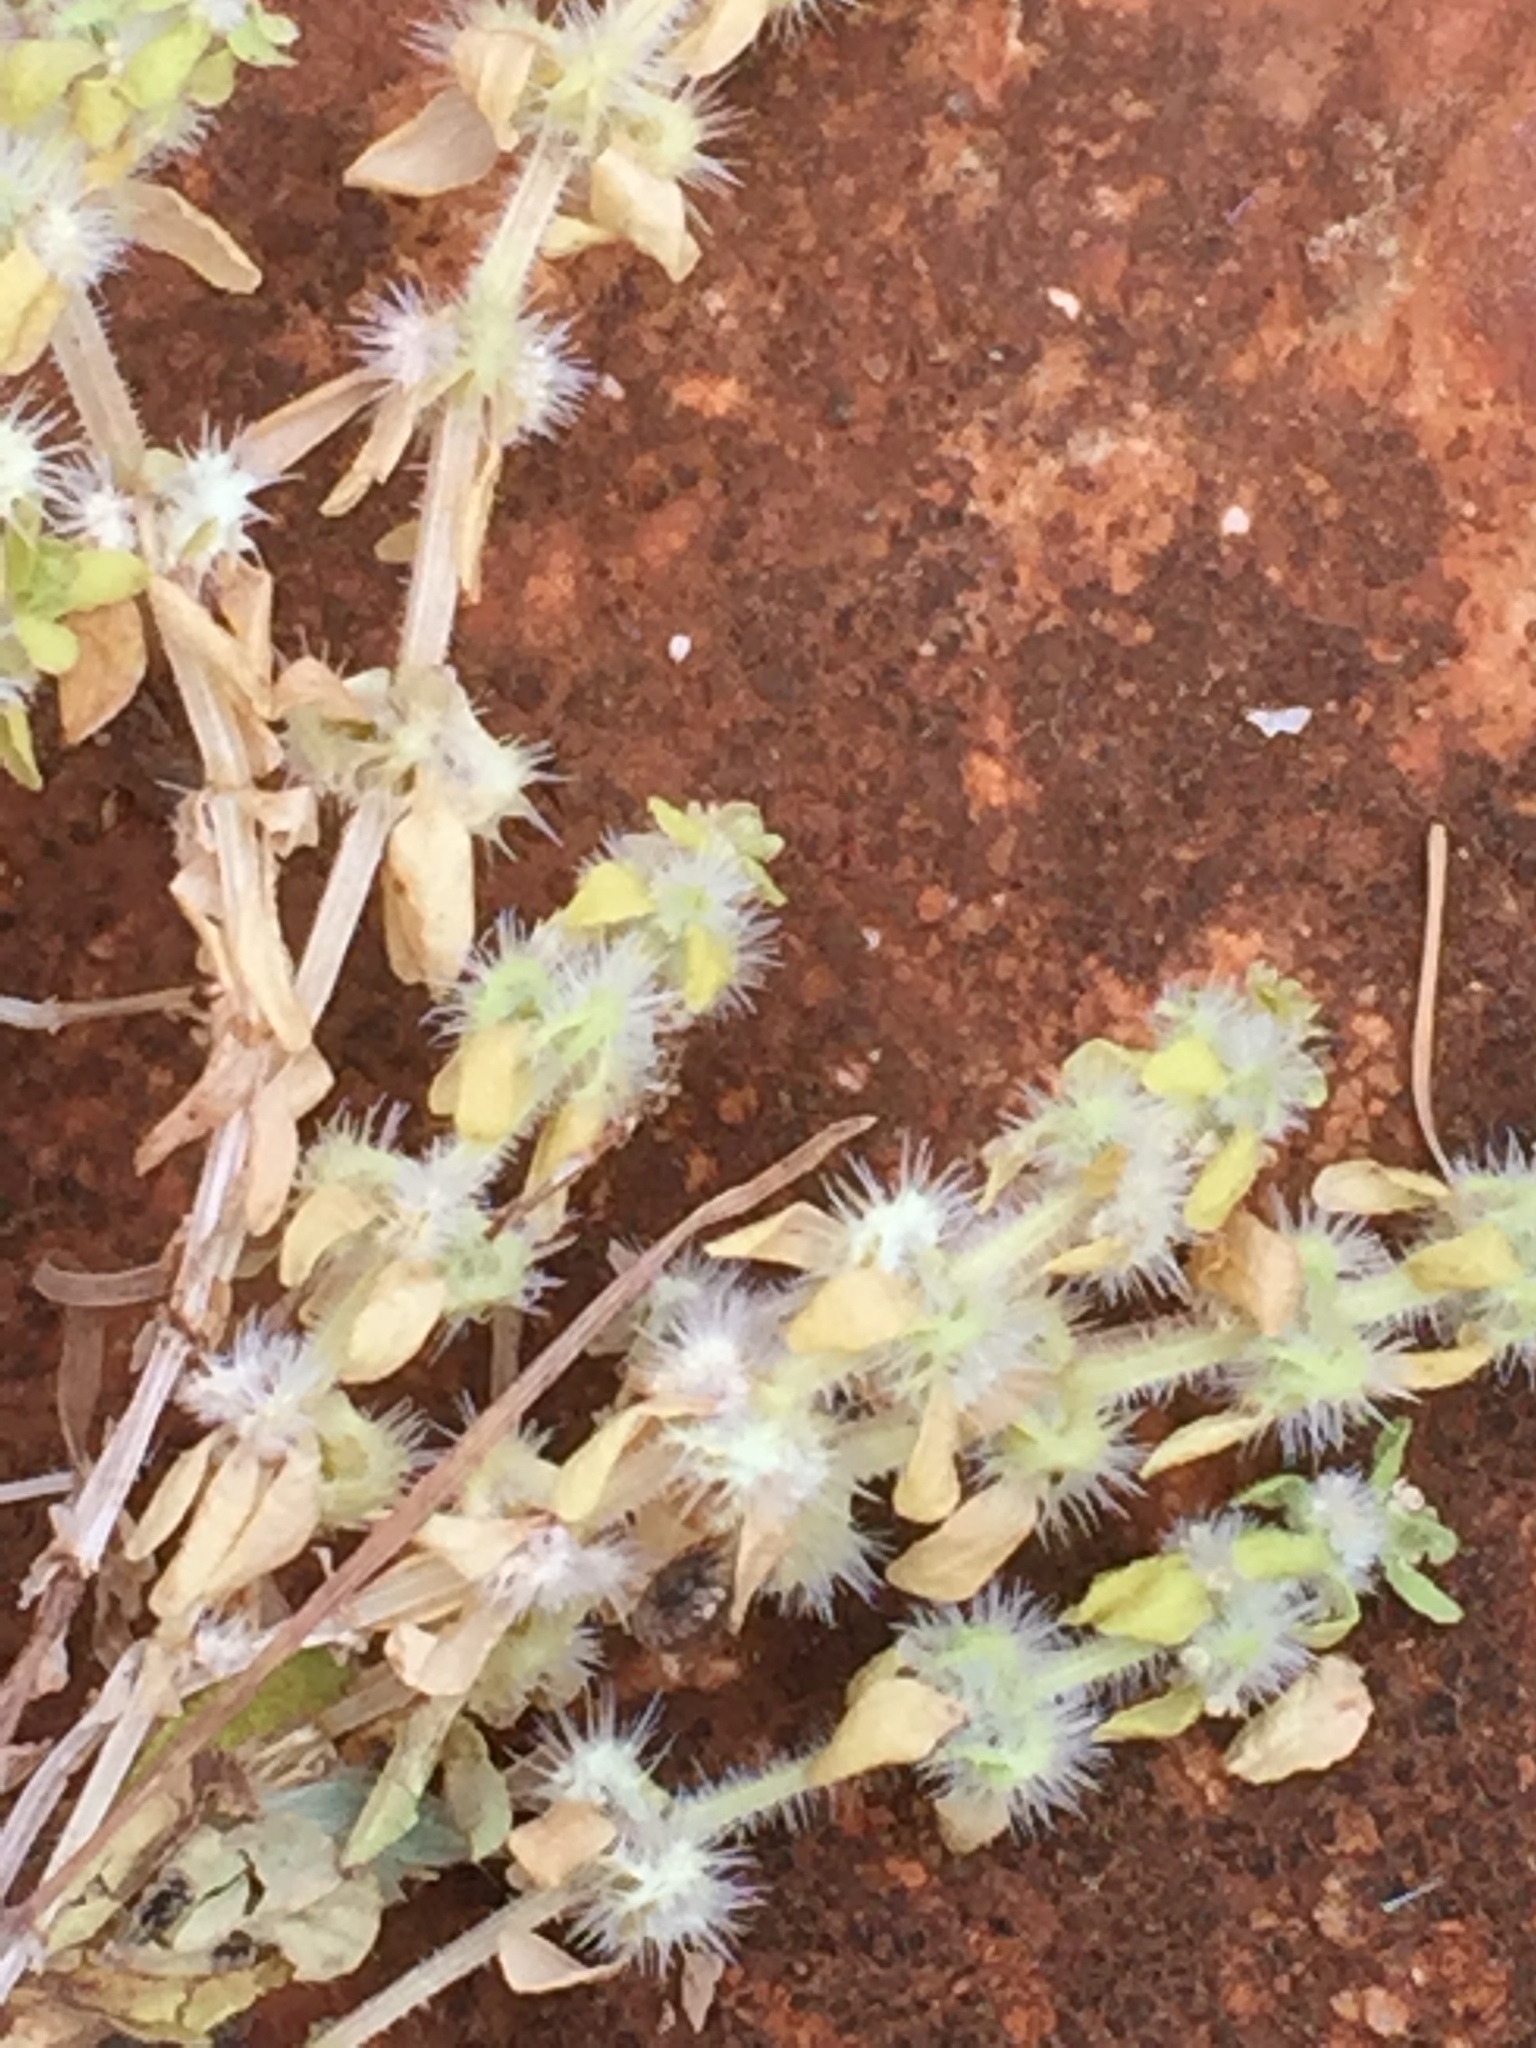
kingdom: Plantae
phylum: Tracheophyta
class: Magnoliopsida
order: Gentianales
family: Rubiaceae
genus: Valantia
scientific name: Valantia hispida
